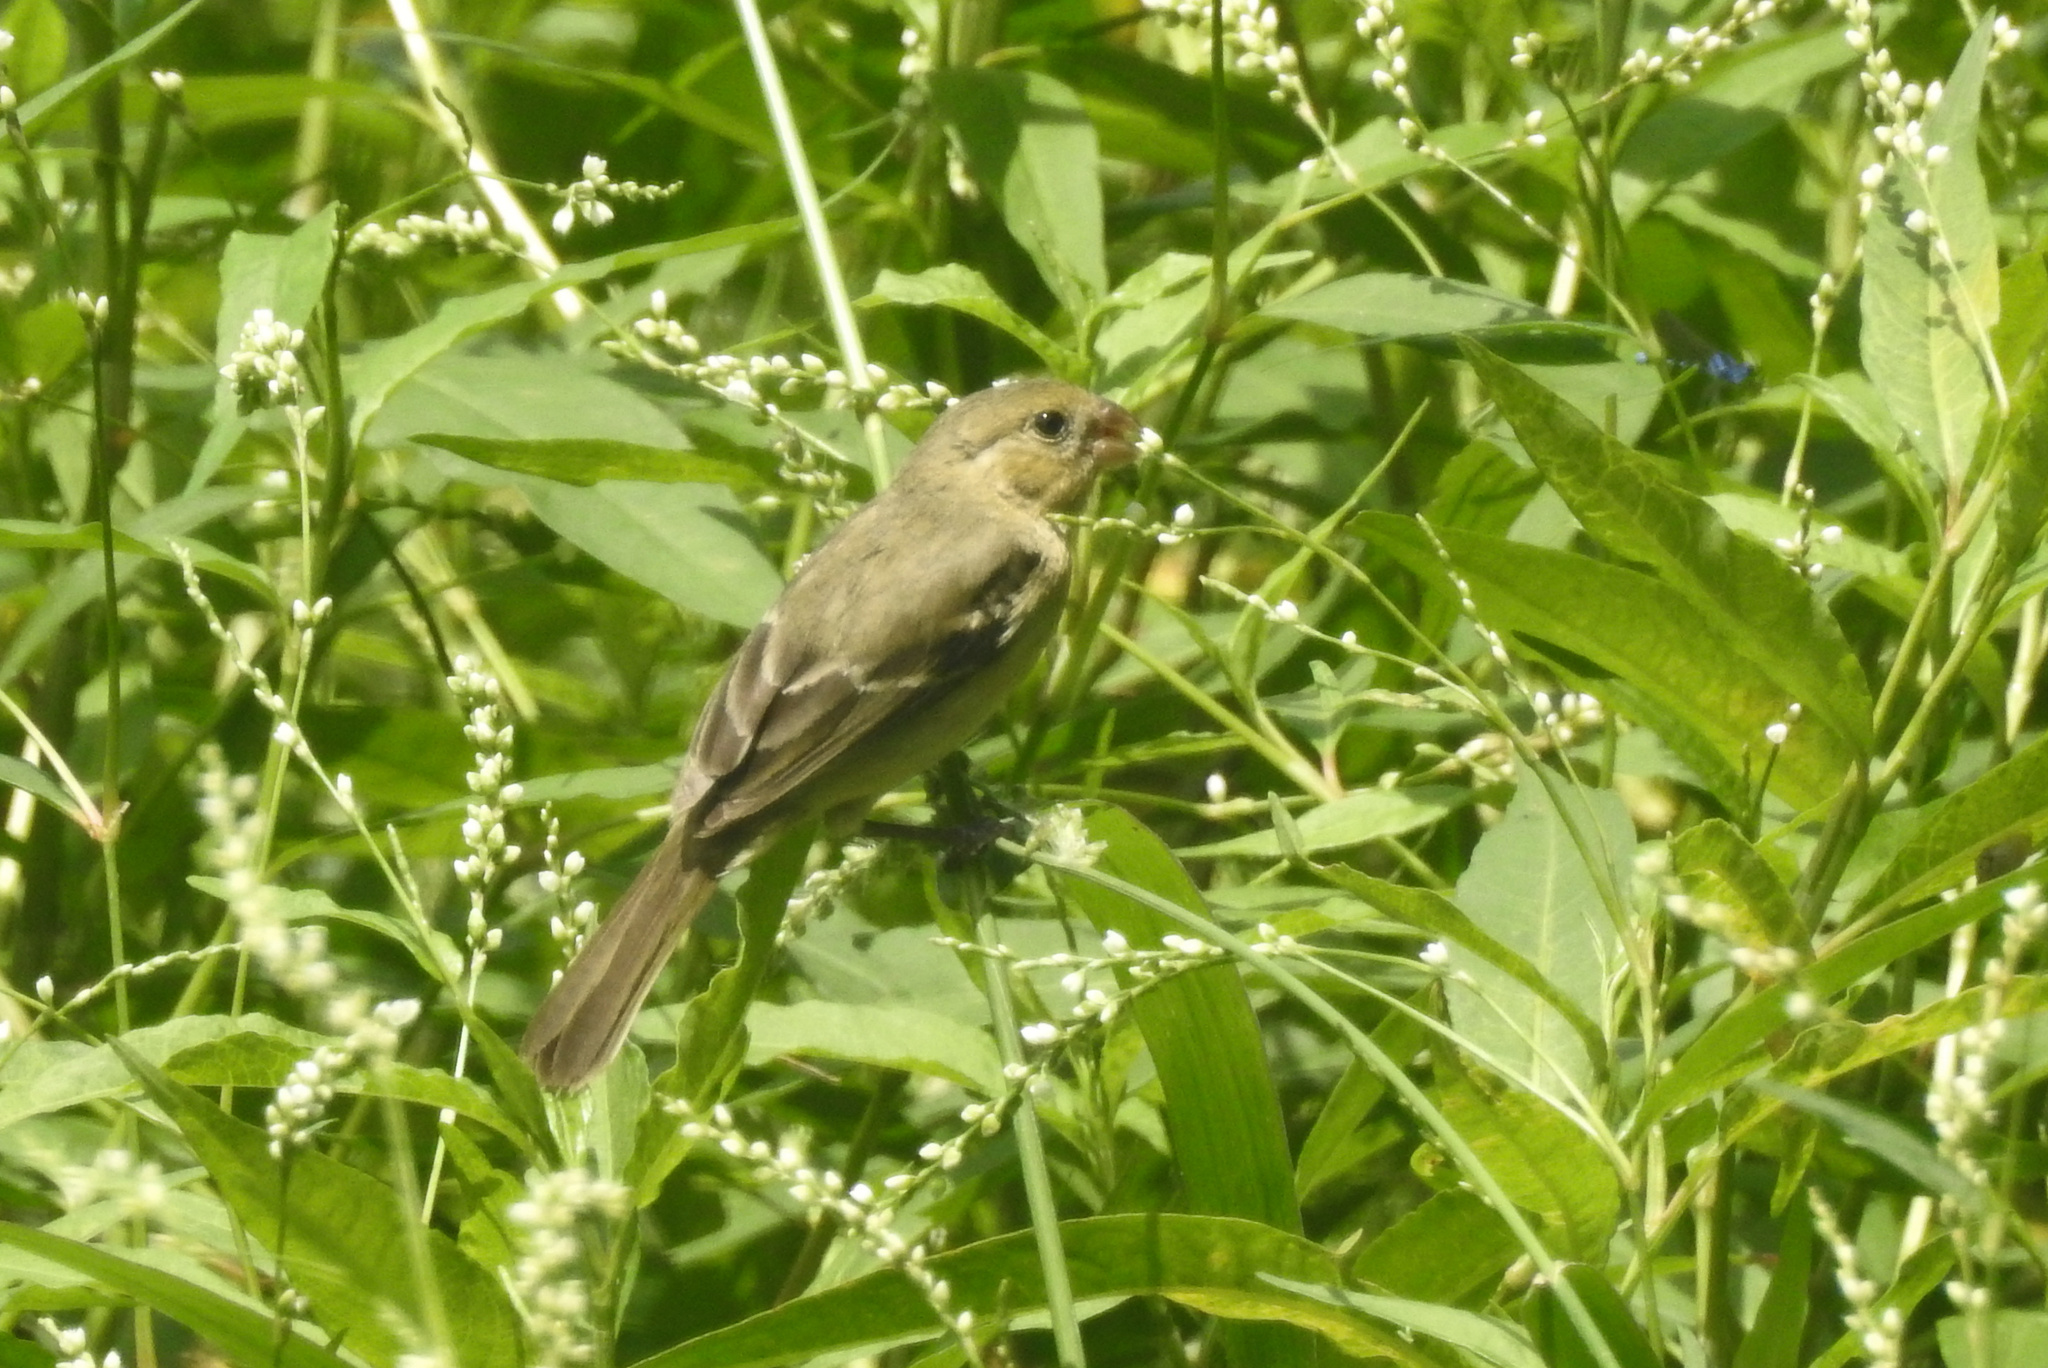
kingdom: Animalia
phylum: Chordata
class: Aves
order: Passeriformes
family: Thraupidae
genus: Sporophila
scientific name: Sporophila morelleti
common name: Morelet's seedeater
